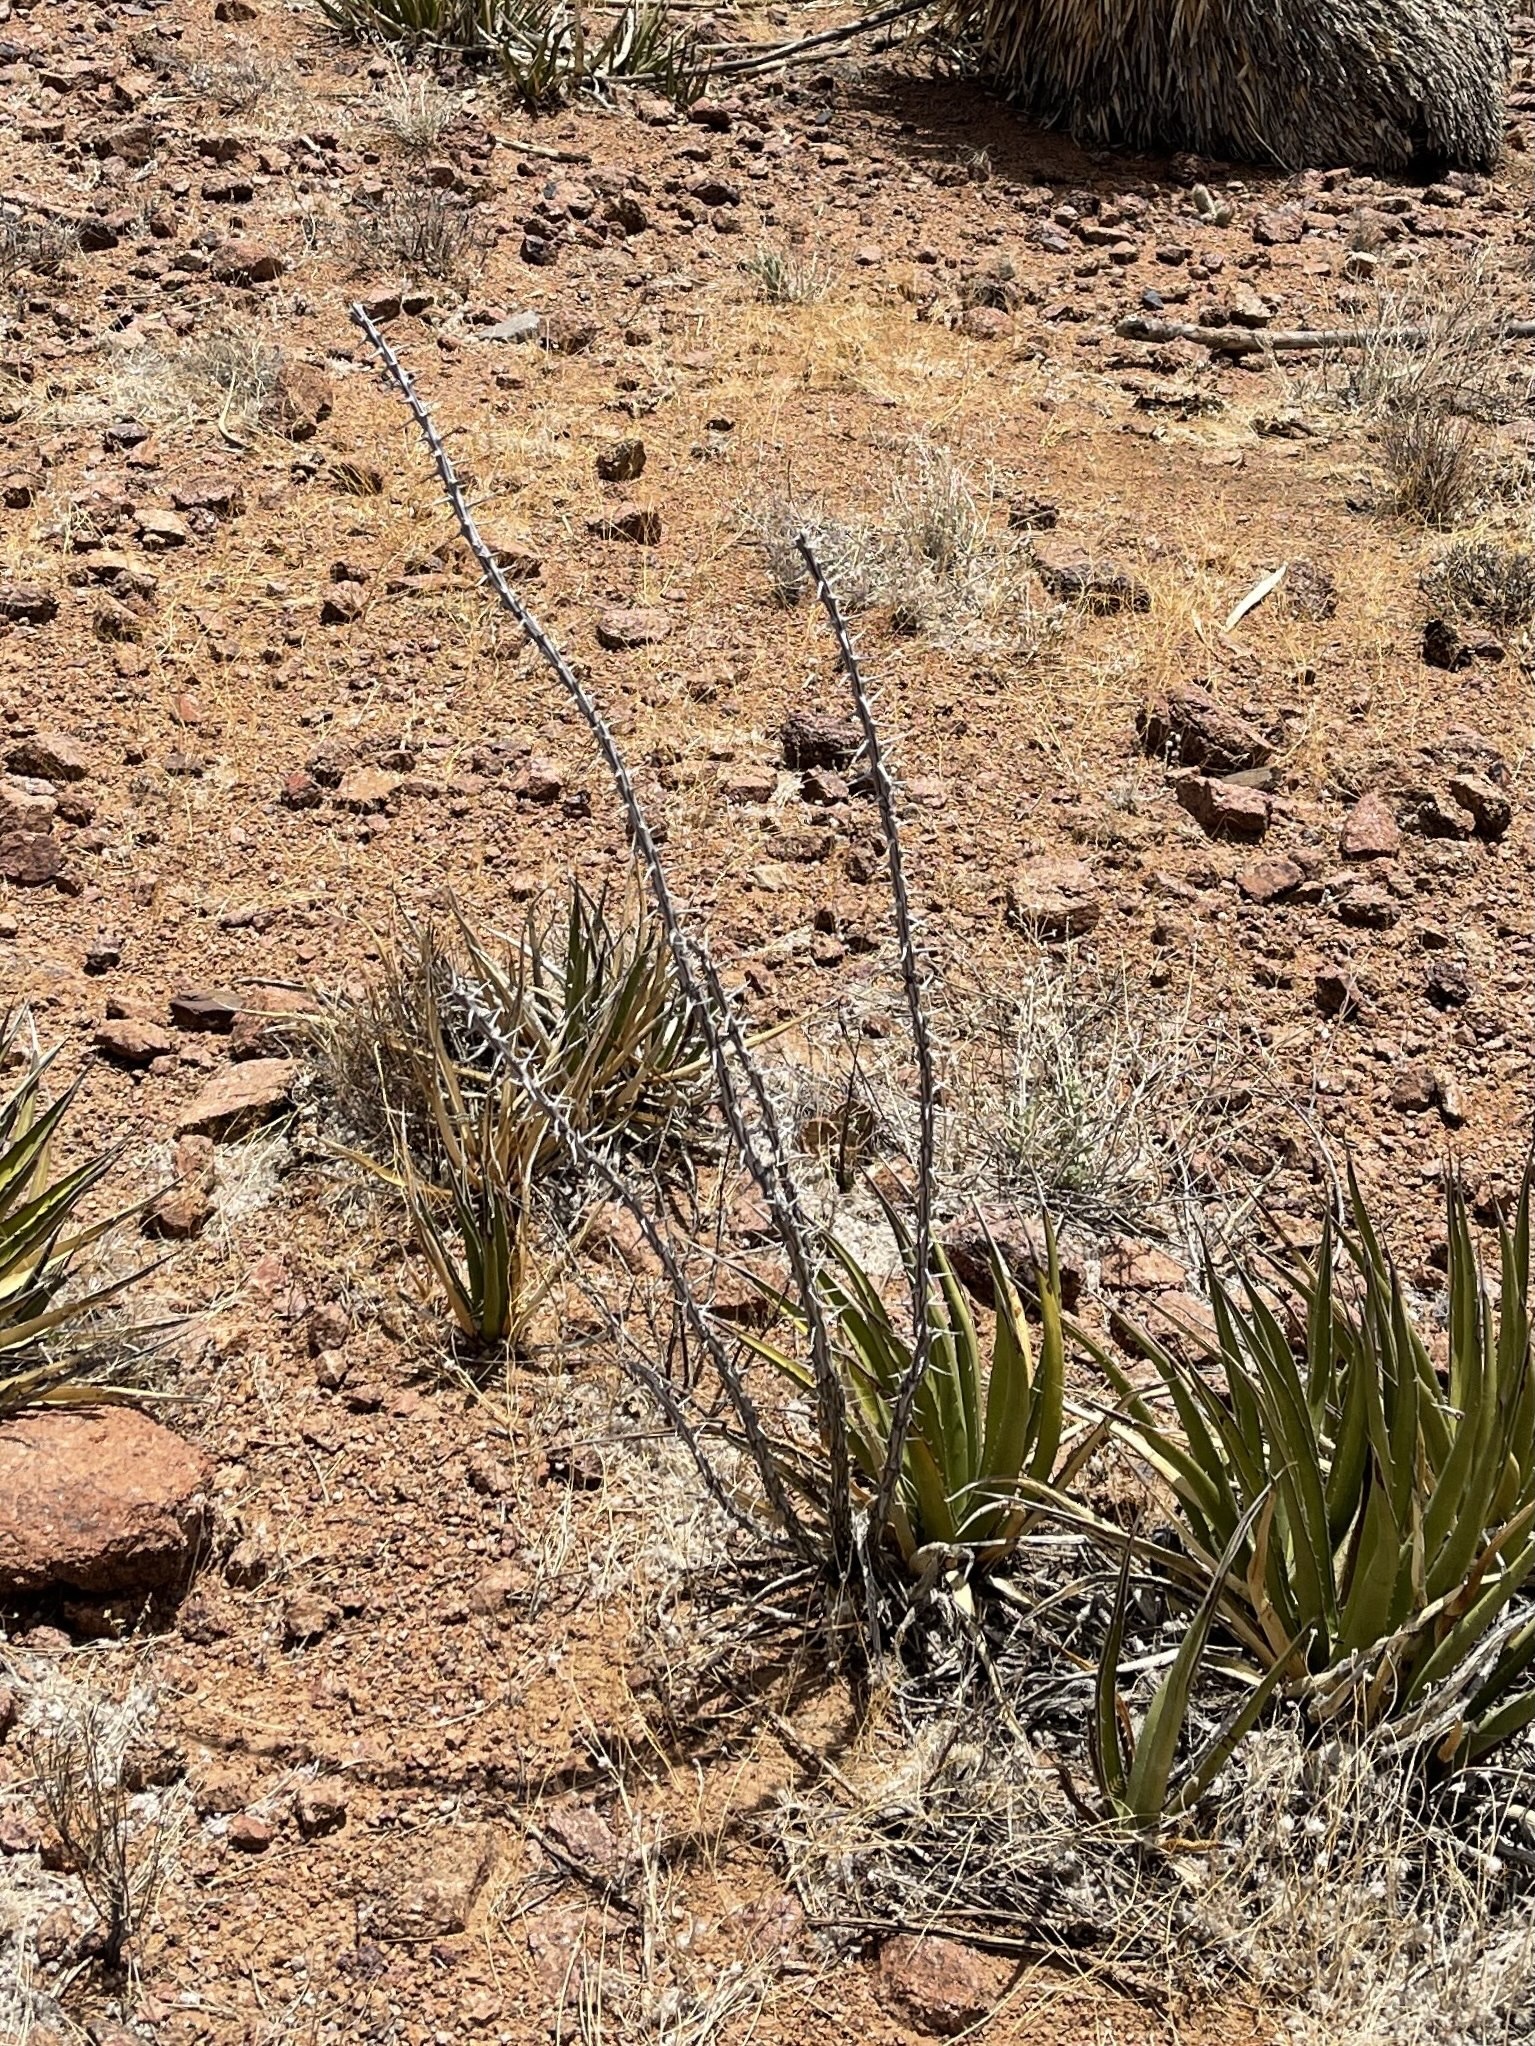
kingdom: Plantae
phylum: Tracheophyta
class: Magnoliopsida
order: Ericales
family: Fouquieriaceae
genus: Fouquieria
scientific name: Fouquieria splendens
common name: Vine-cactus
